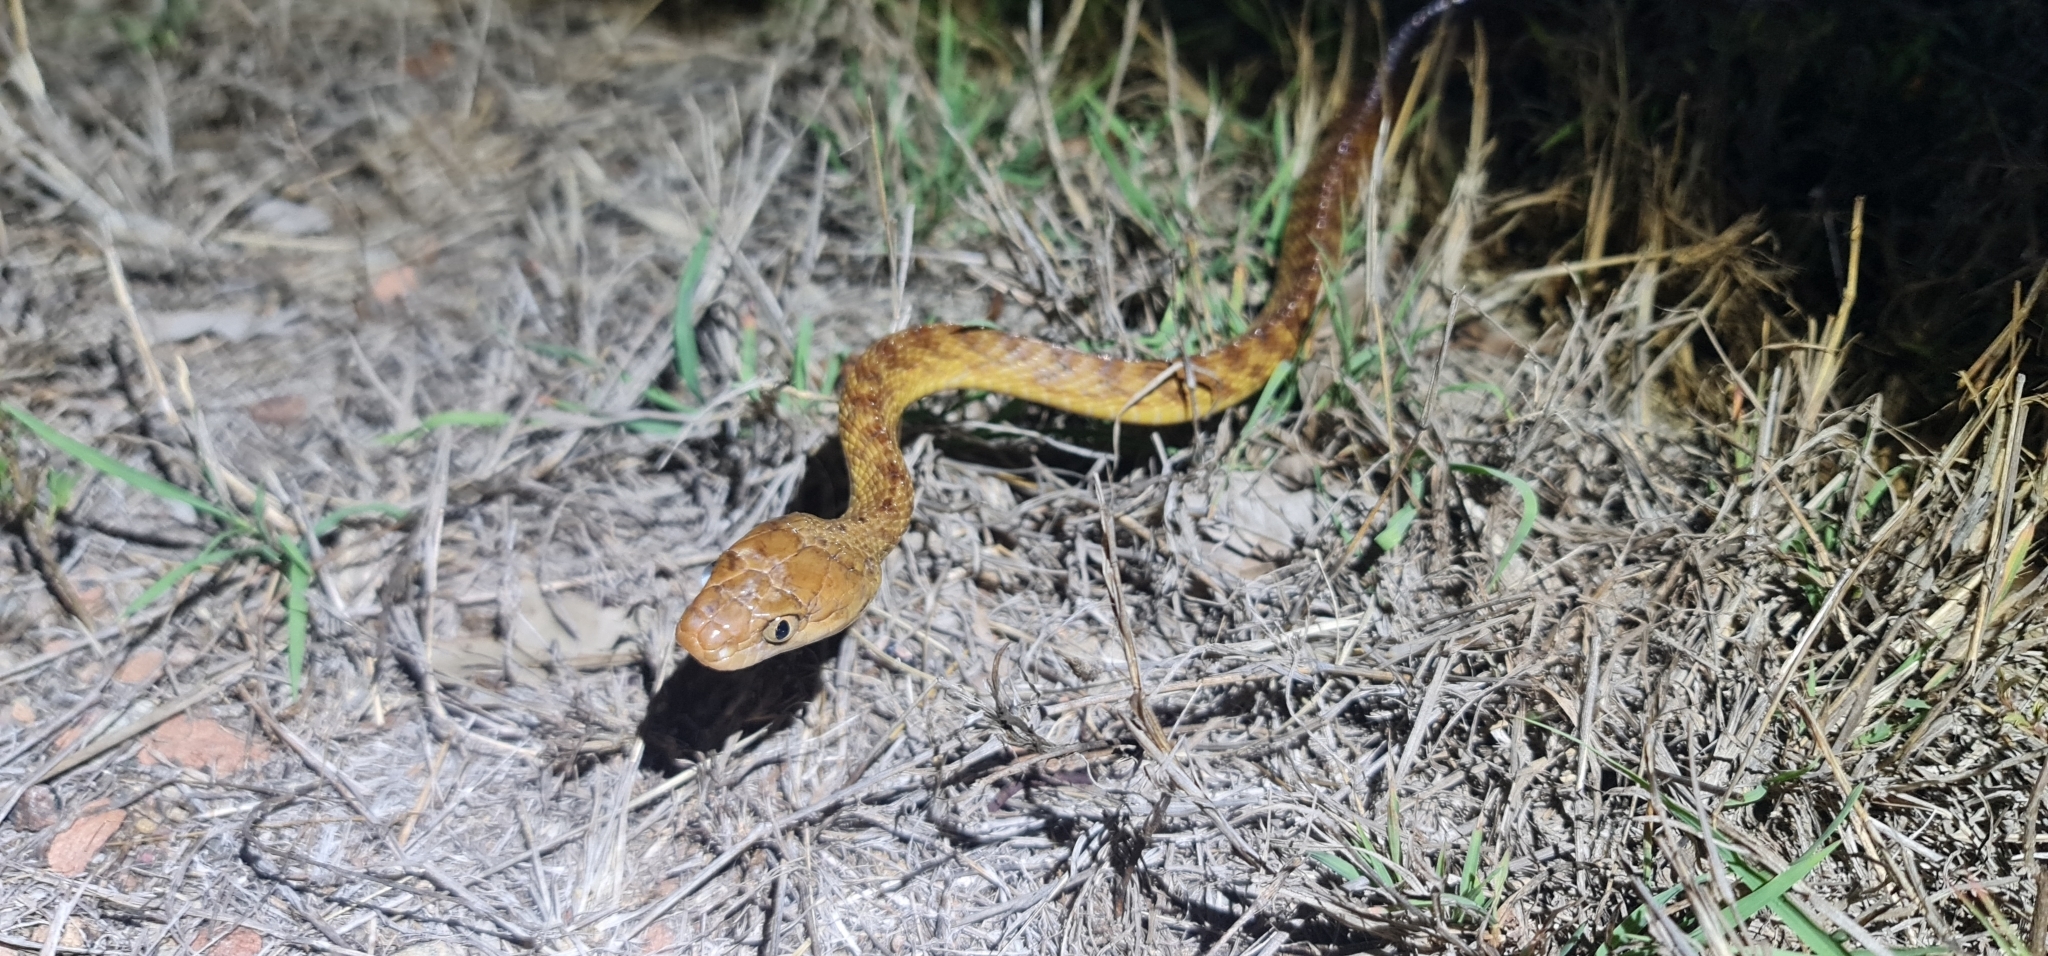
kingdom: Animalia
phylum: Chordata
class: Squamata
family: Colubridae
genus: Boiga
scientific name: Boiga irregularis
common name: Brown tree snake
